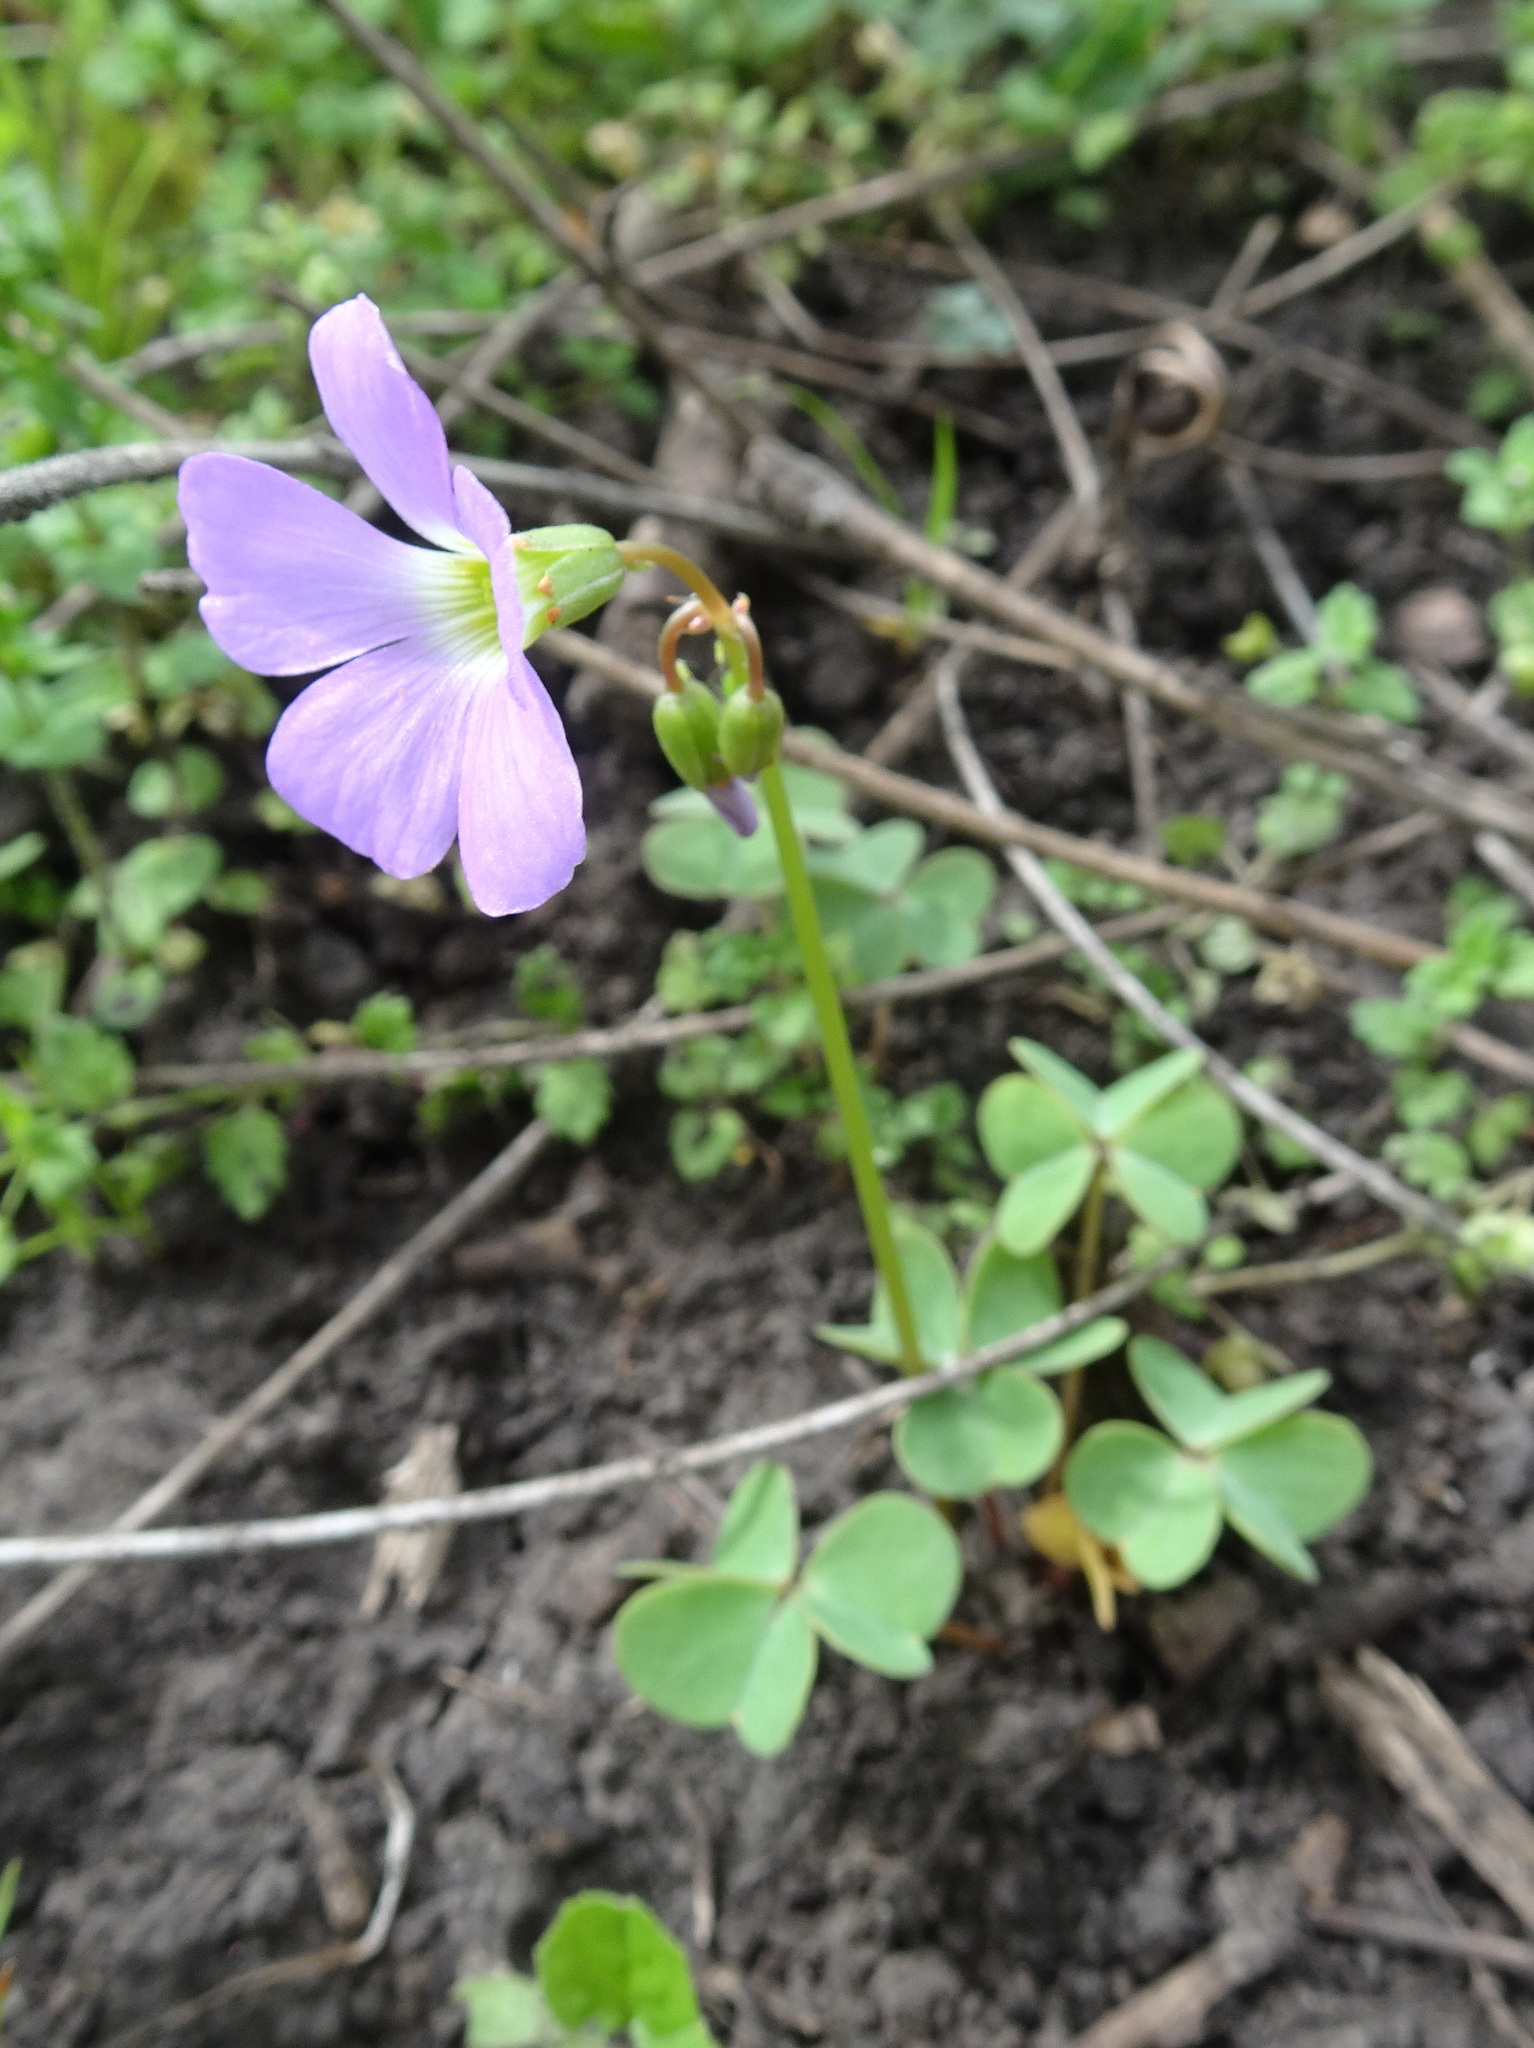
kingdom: Plantae
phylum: Tracheophyta
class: Magnoliopsida
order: Oxalidales
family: Oxalidaceae
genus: Oxalis
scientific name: Oxalis violacea
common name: Violet wood-sorrel
